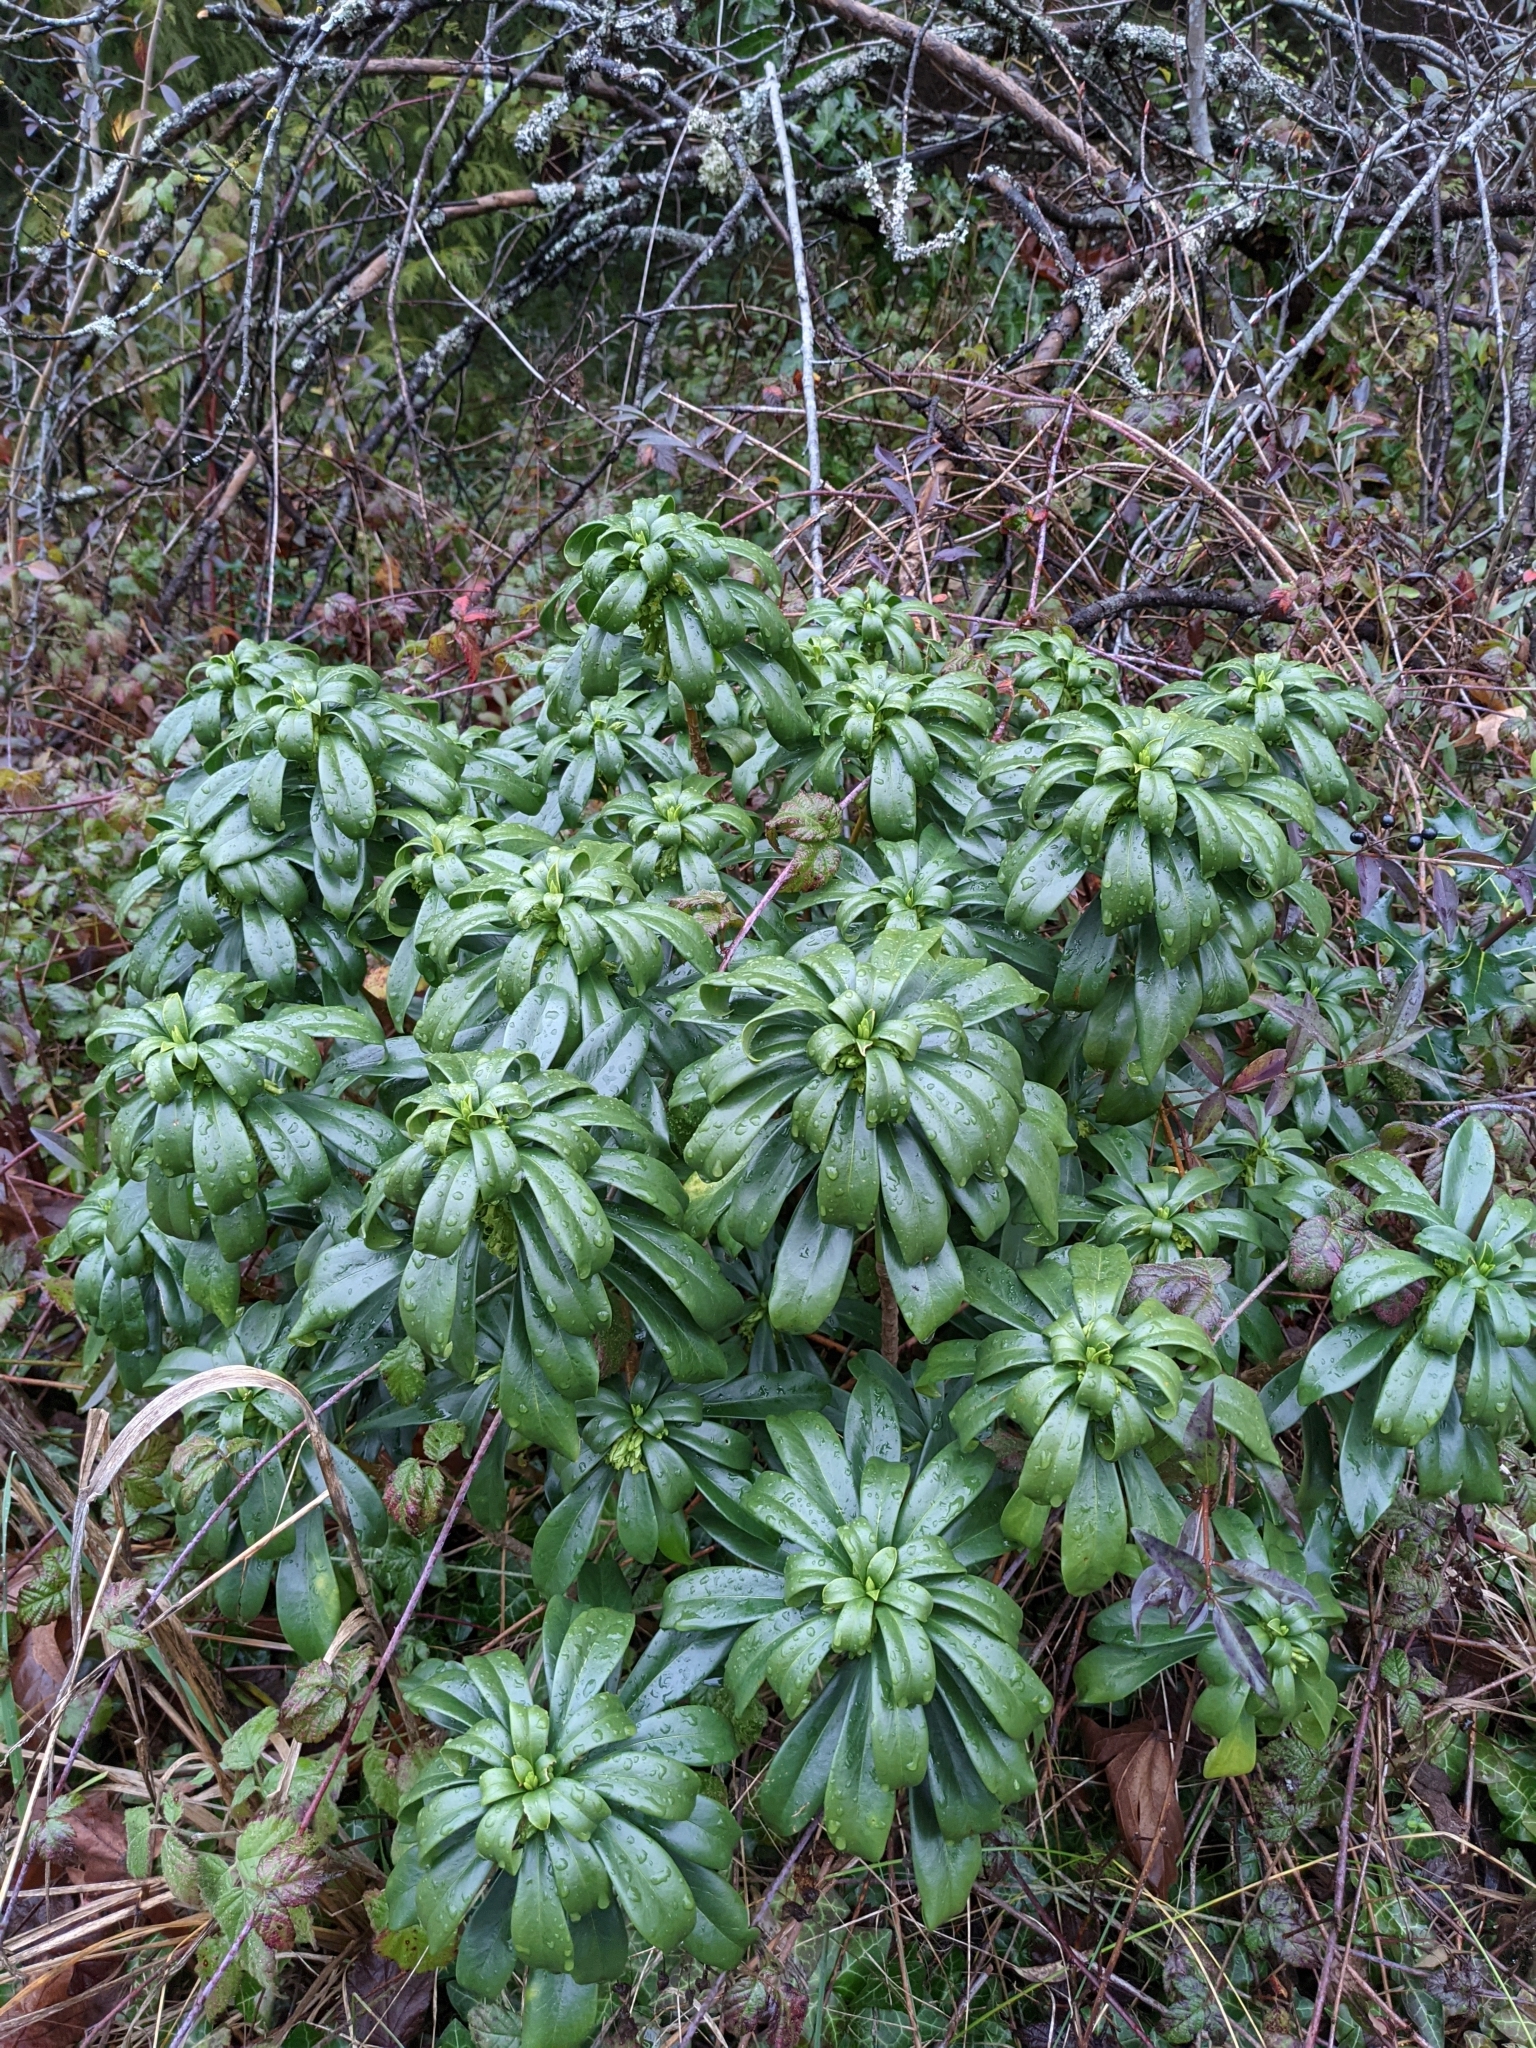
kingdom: Plantae
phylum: Tracheophyta
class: Magnoliopsida
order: Malvales
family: Thymelaeaceae
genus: Daphne
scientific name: Daphne laureola
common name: Spurge-laurel
